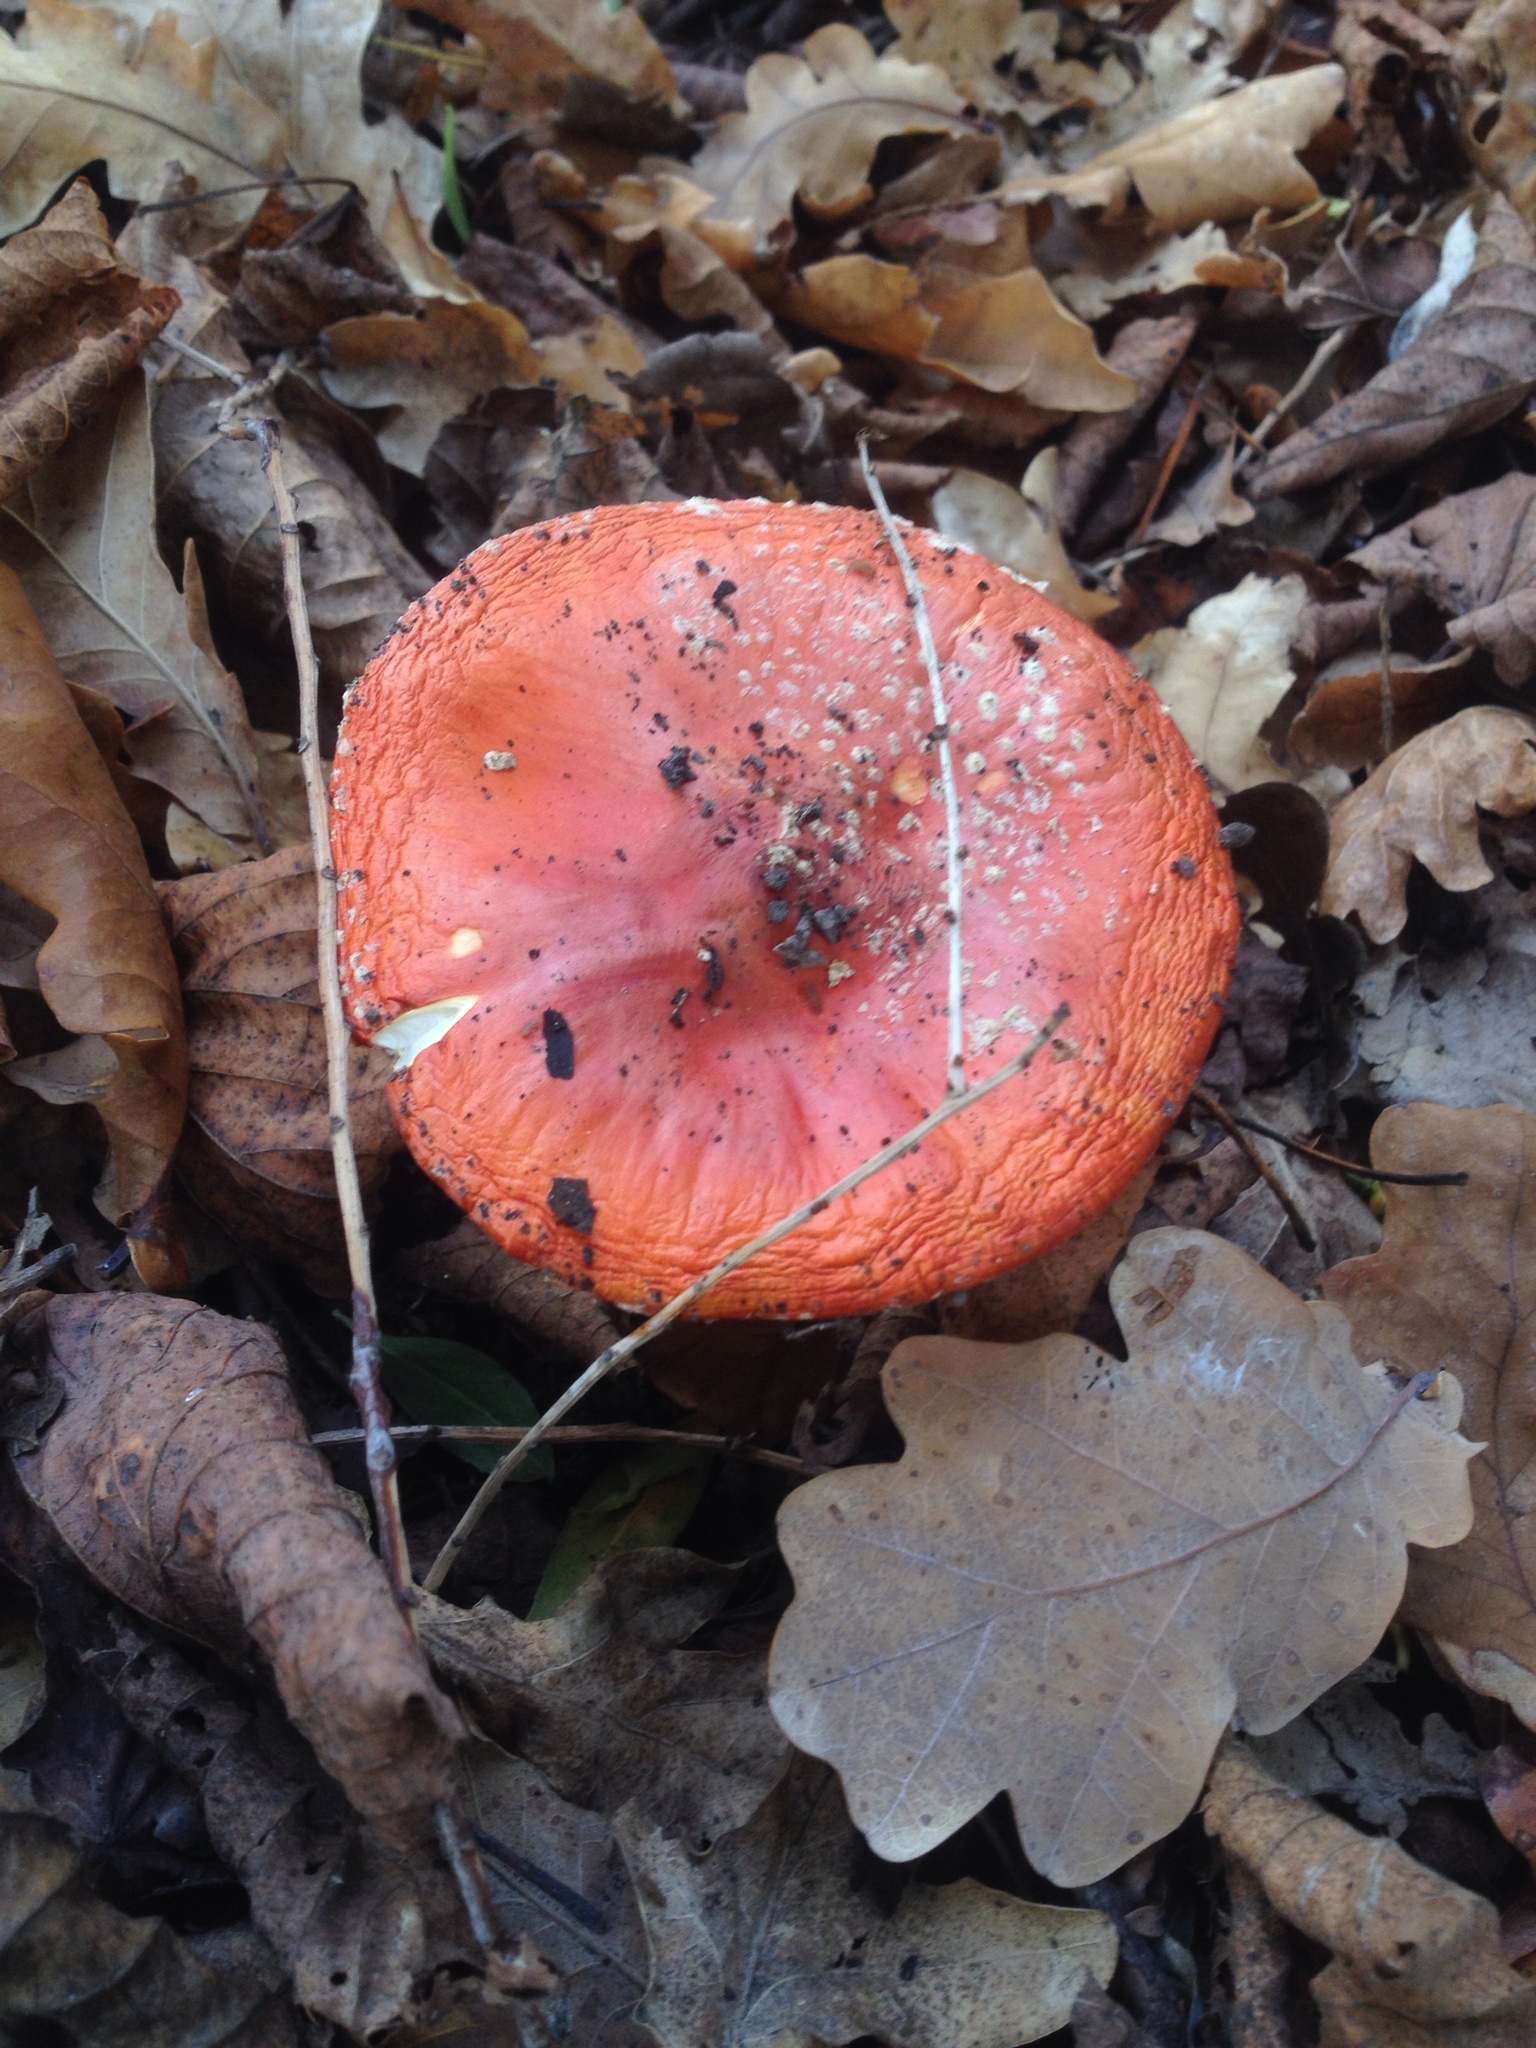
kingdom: Fungi
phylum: Basidiomycota
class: Agaricomycetes
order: Agaricales
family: Amanitaceae
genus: Amanita
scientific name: Amanita muscaria
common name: Fly agaric
